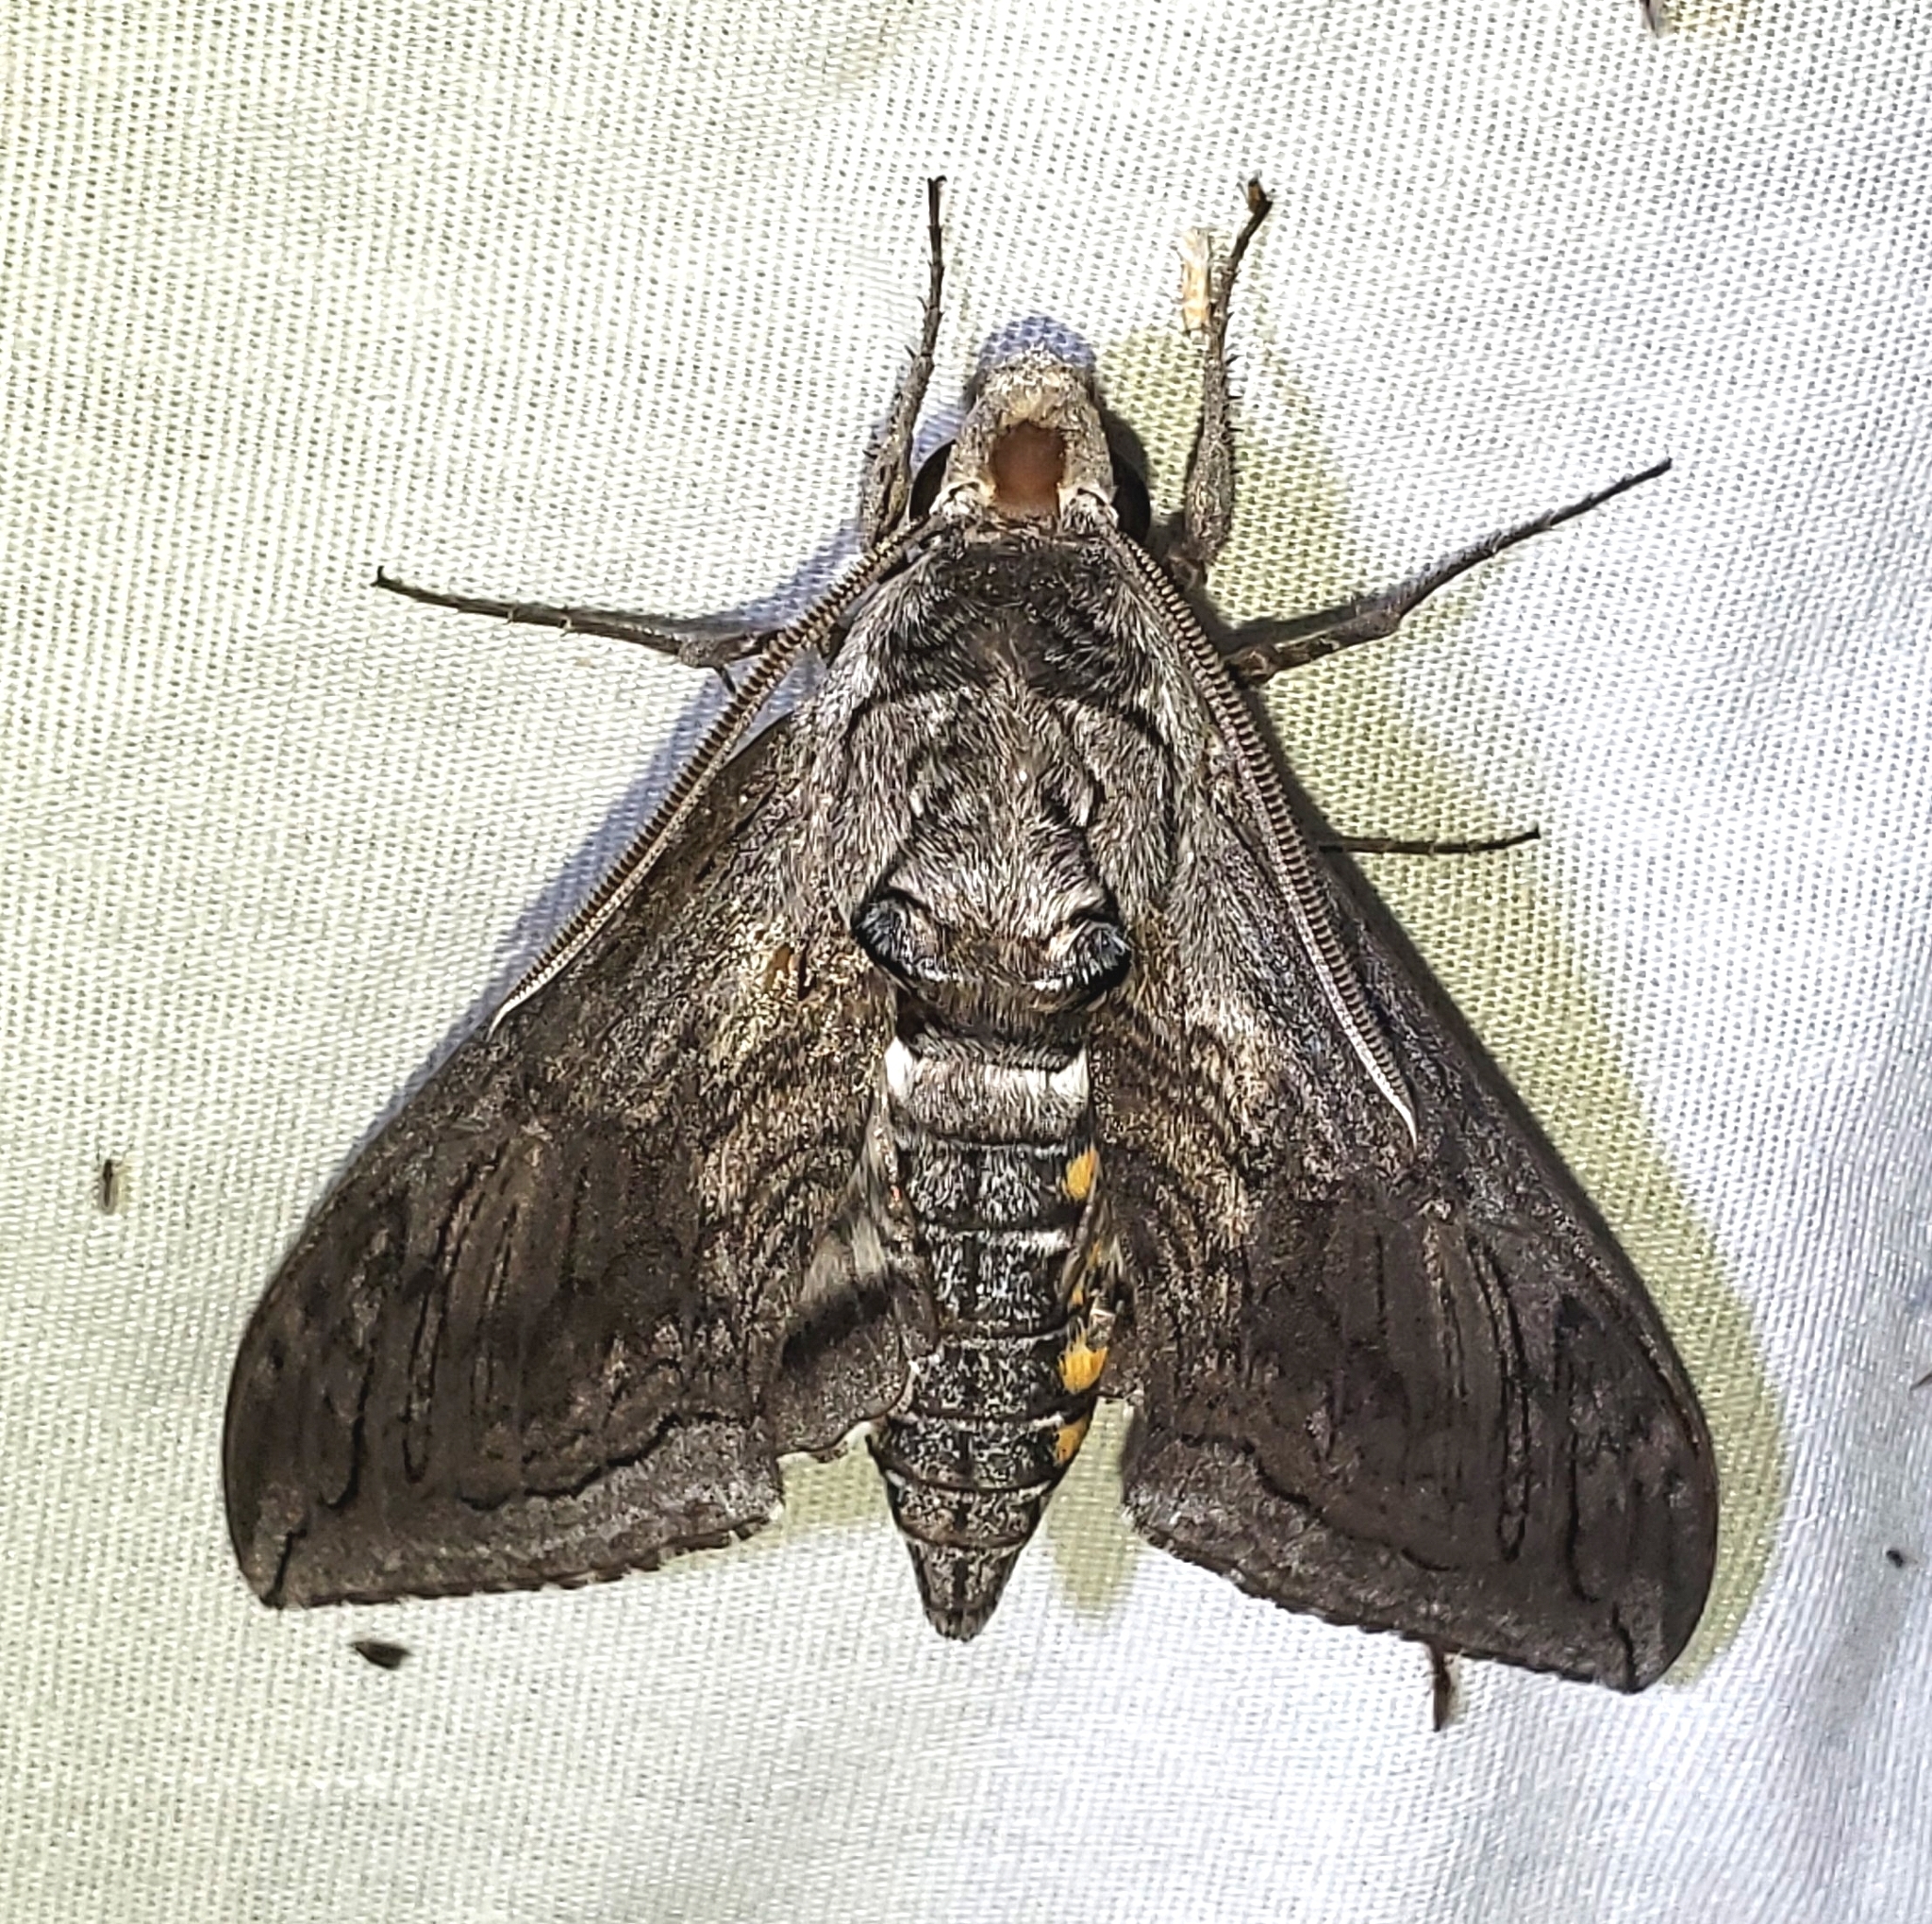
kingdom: Animalia
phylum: Arthropoda
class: Insecta
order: Lepidoptera
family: Sphingidae
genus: Manduca
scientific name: Manduca quinquemaculatus
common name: Five-spotted hawk-moth
